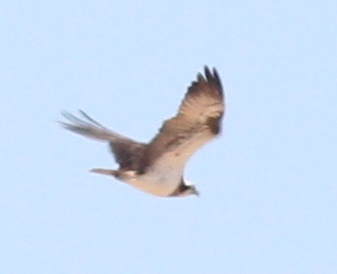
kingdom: Animalia
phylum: Chordata
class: Aves
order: Accipitriformes
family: Pandionidae
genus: Pandion
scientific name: Pandion haliaetus
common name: Osprey
